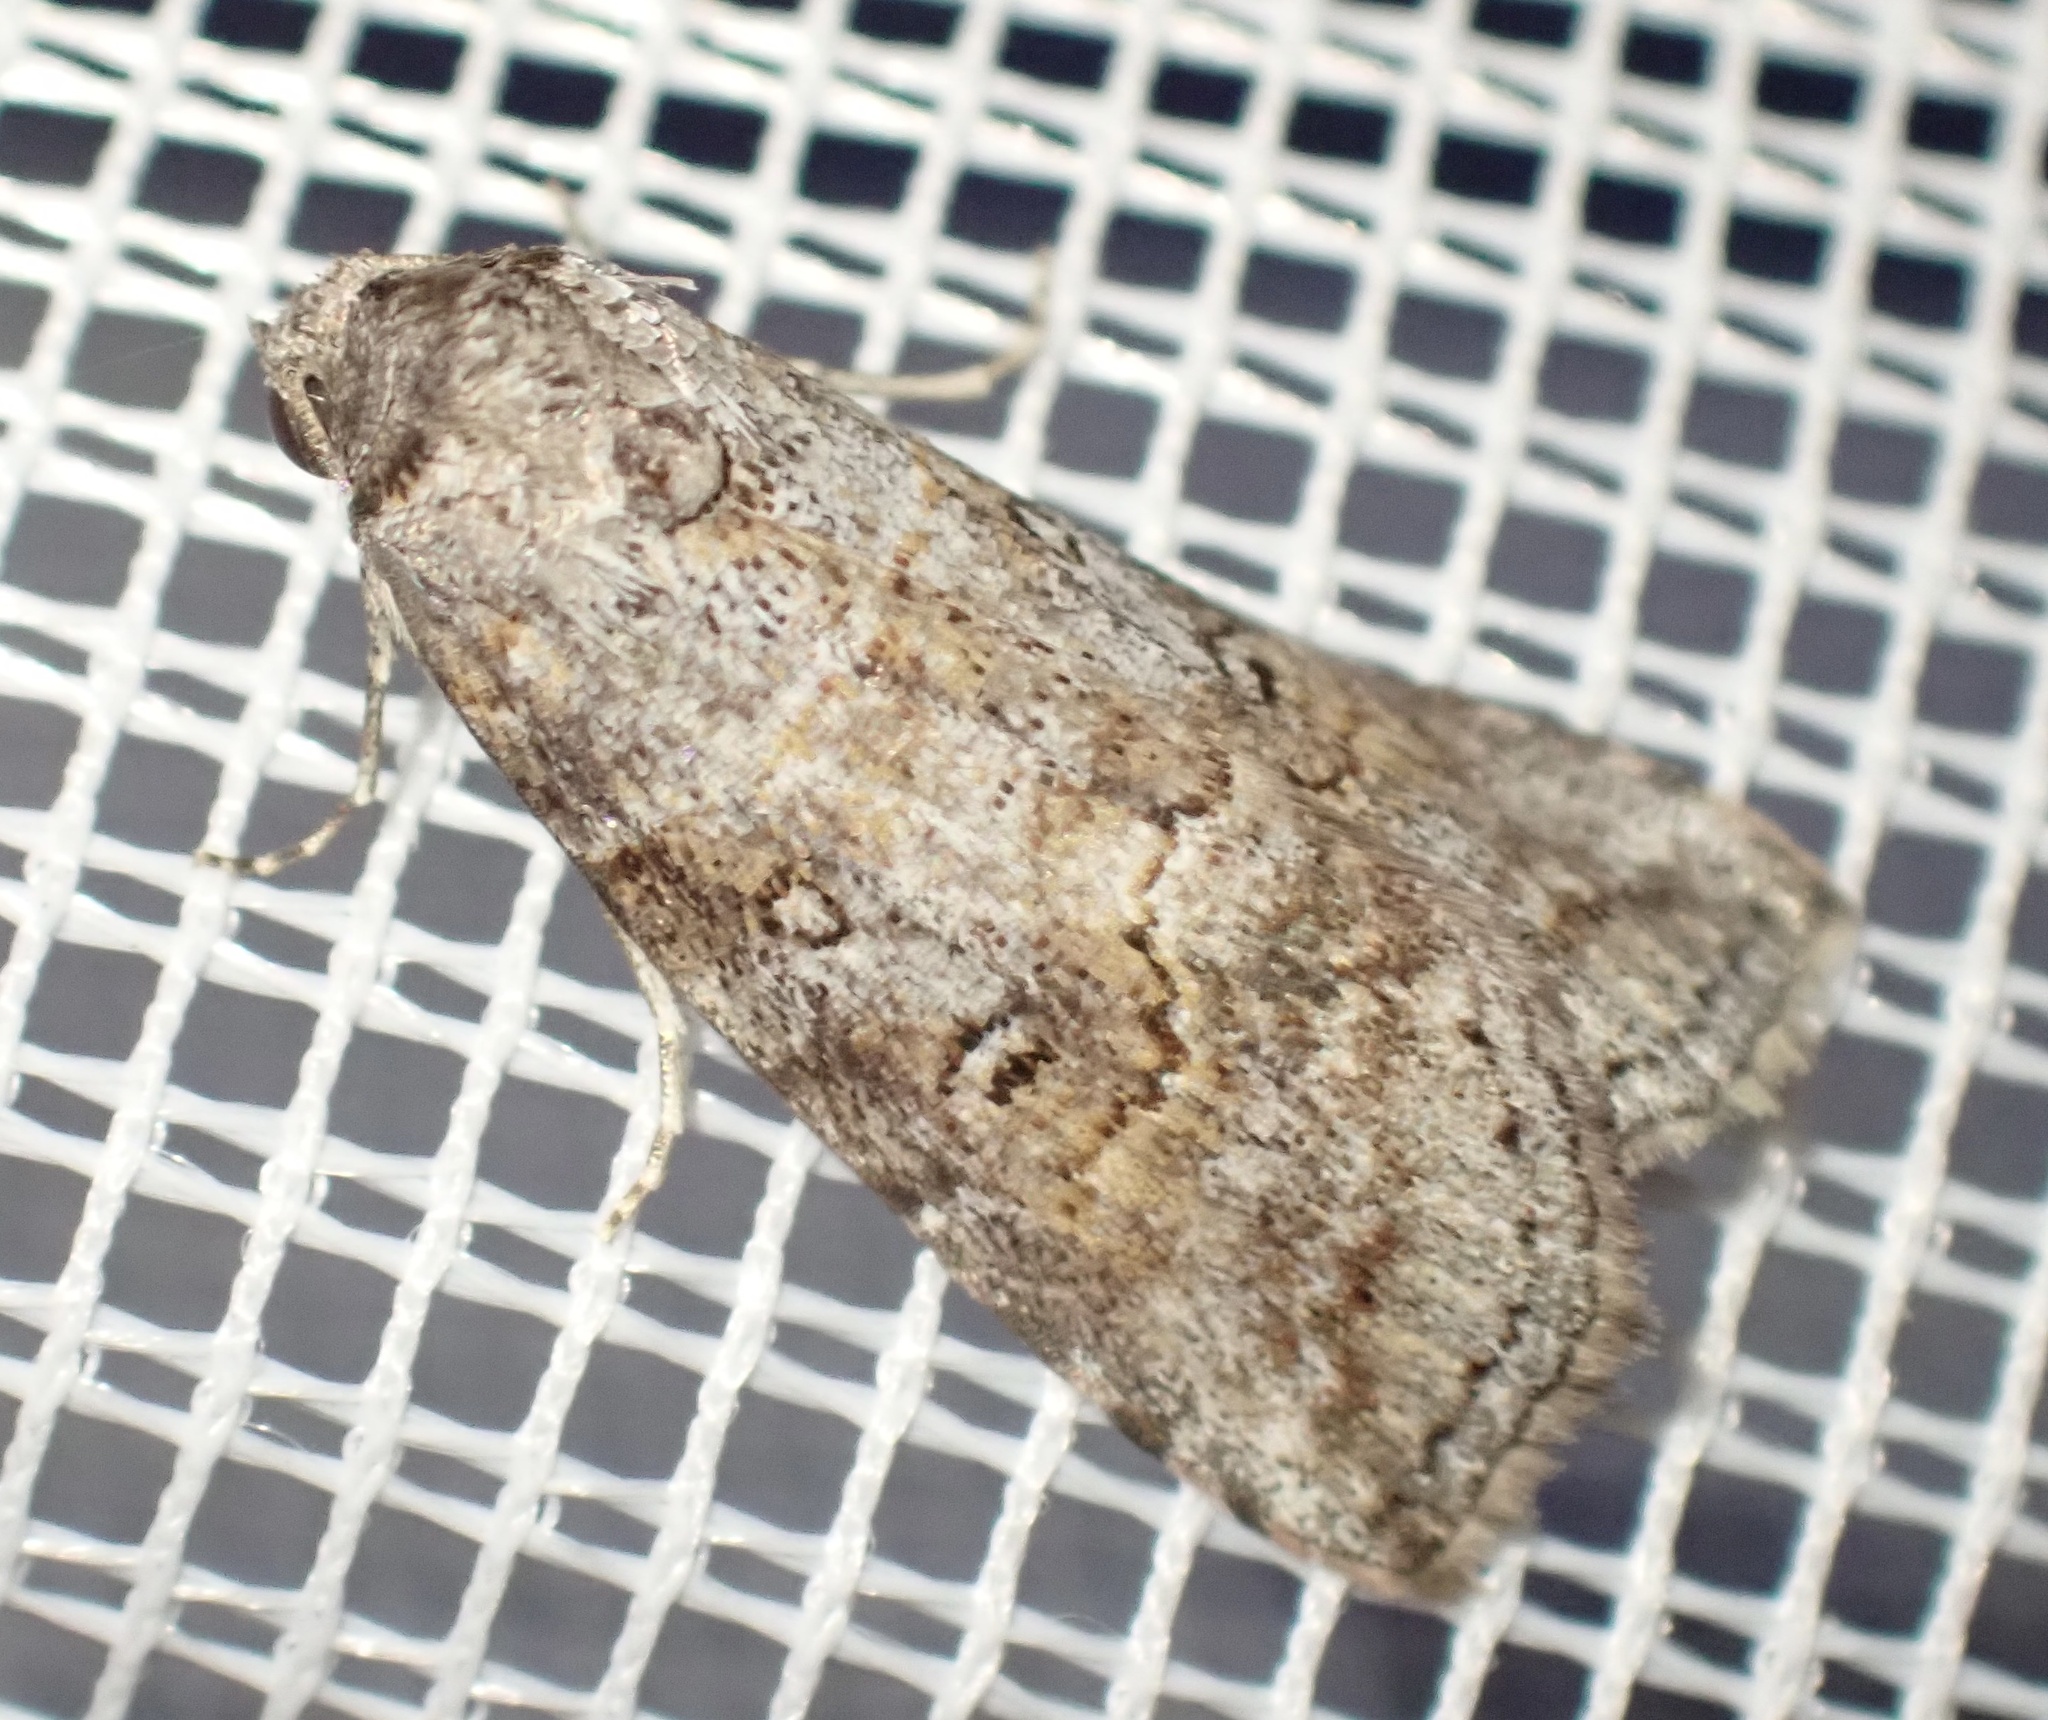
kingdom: Animalia
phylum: Arthropoda
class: Insecta
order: Lepidoptera
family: Nolidae
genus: Calathusa
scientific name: Calathusa hypotherma
